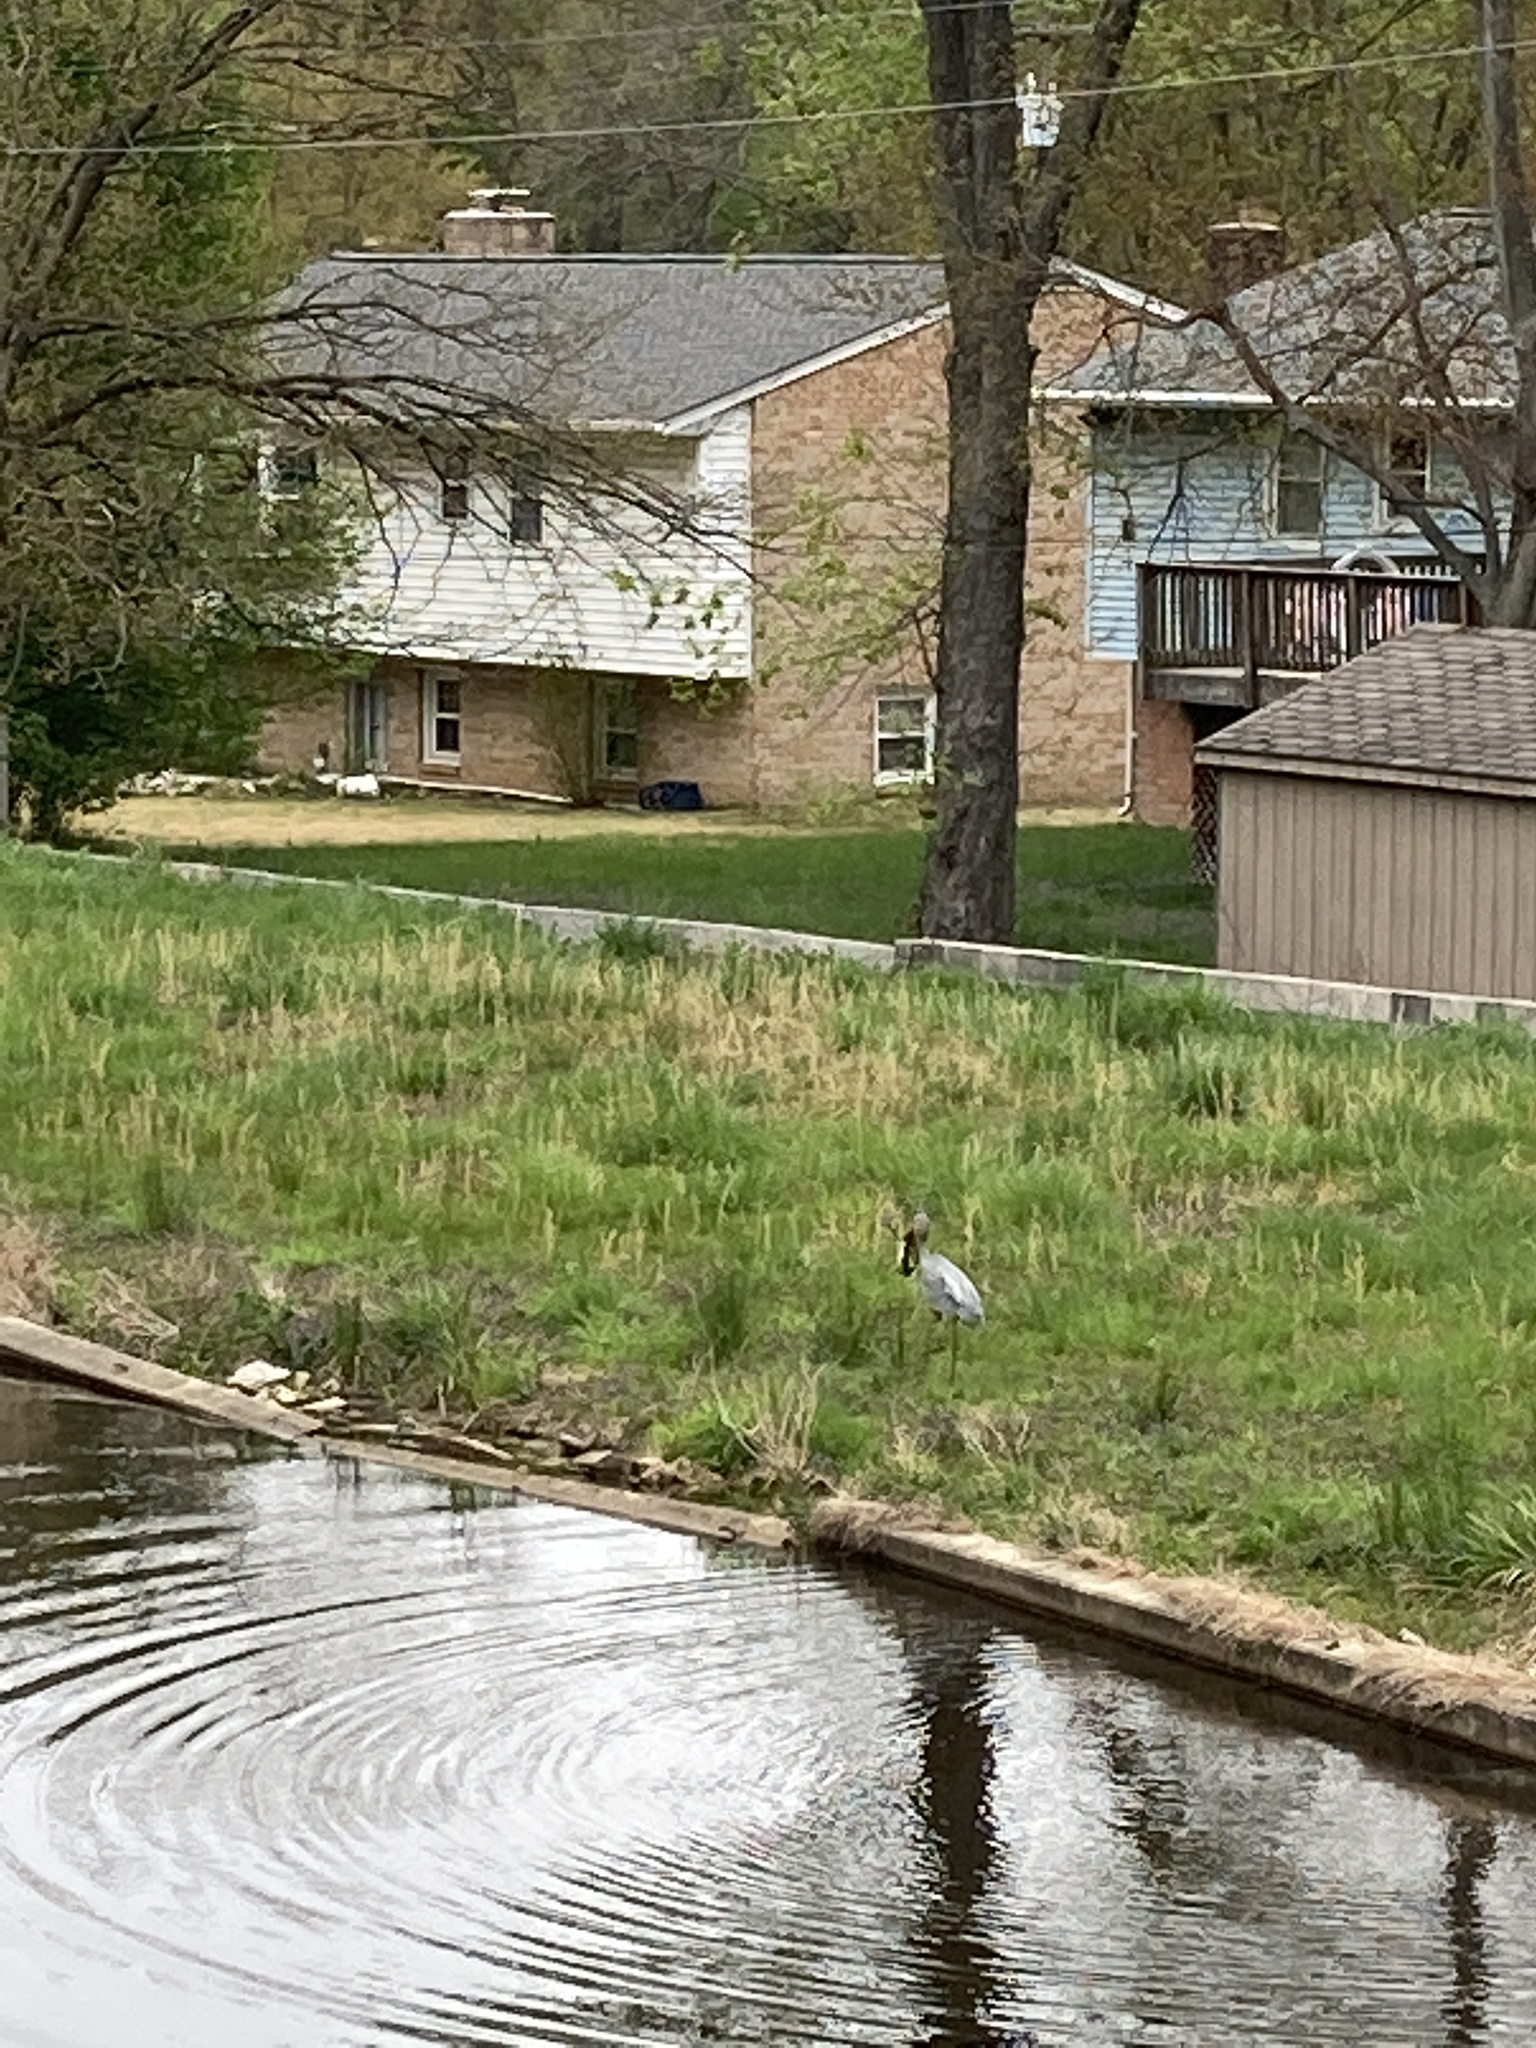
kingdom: Animalia
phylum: Chordata
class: Aves
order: Pelecaniformes
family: Ardeidae
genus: Ardea
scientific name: Ardea herodias
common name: Great blue heron
